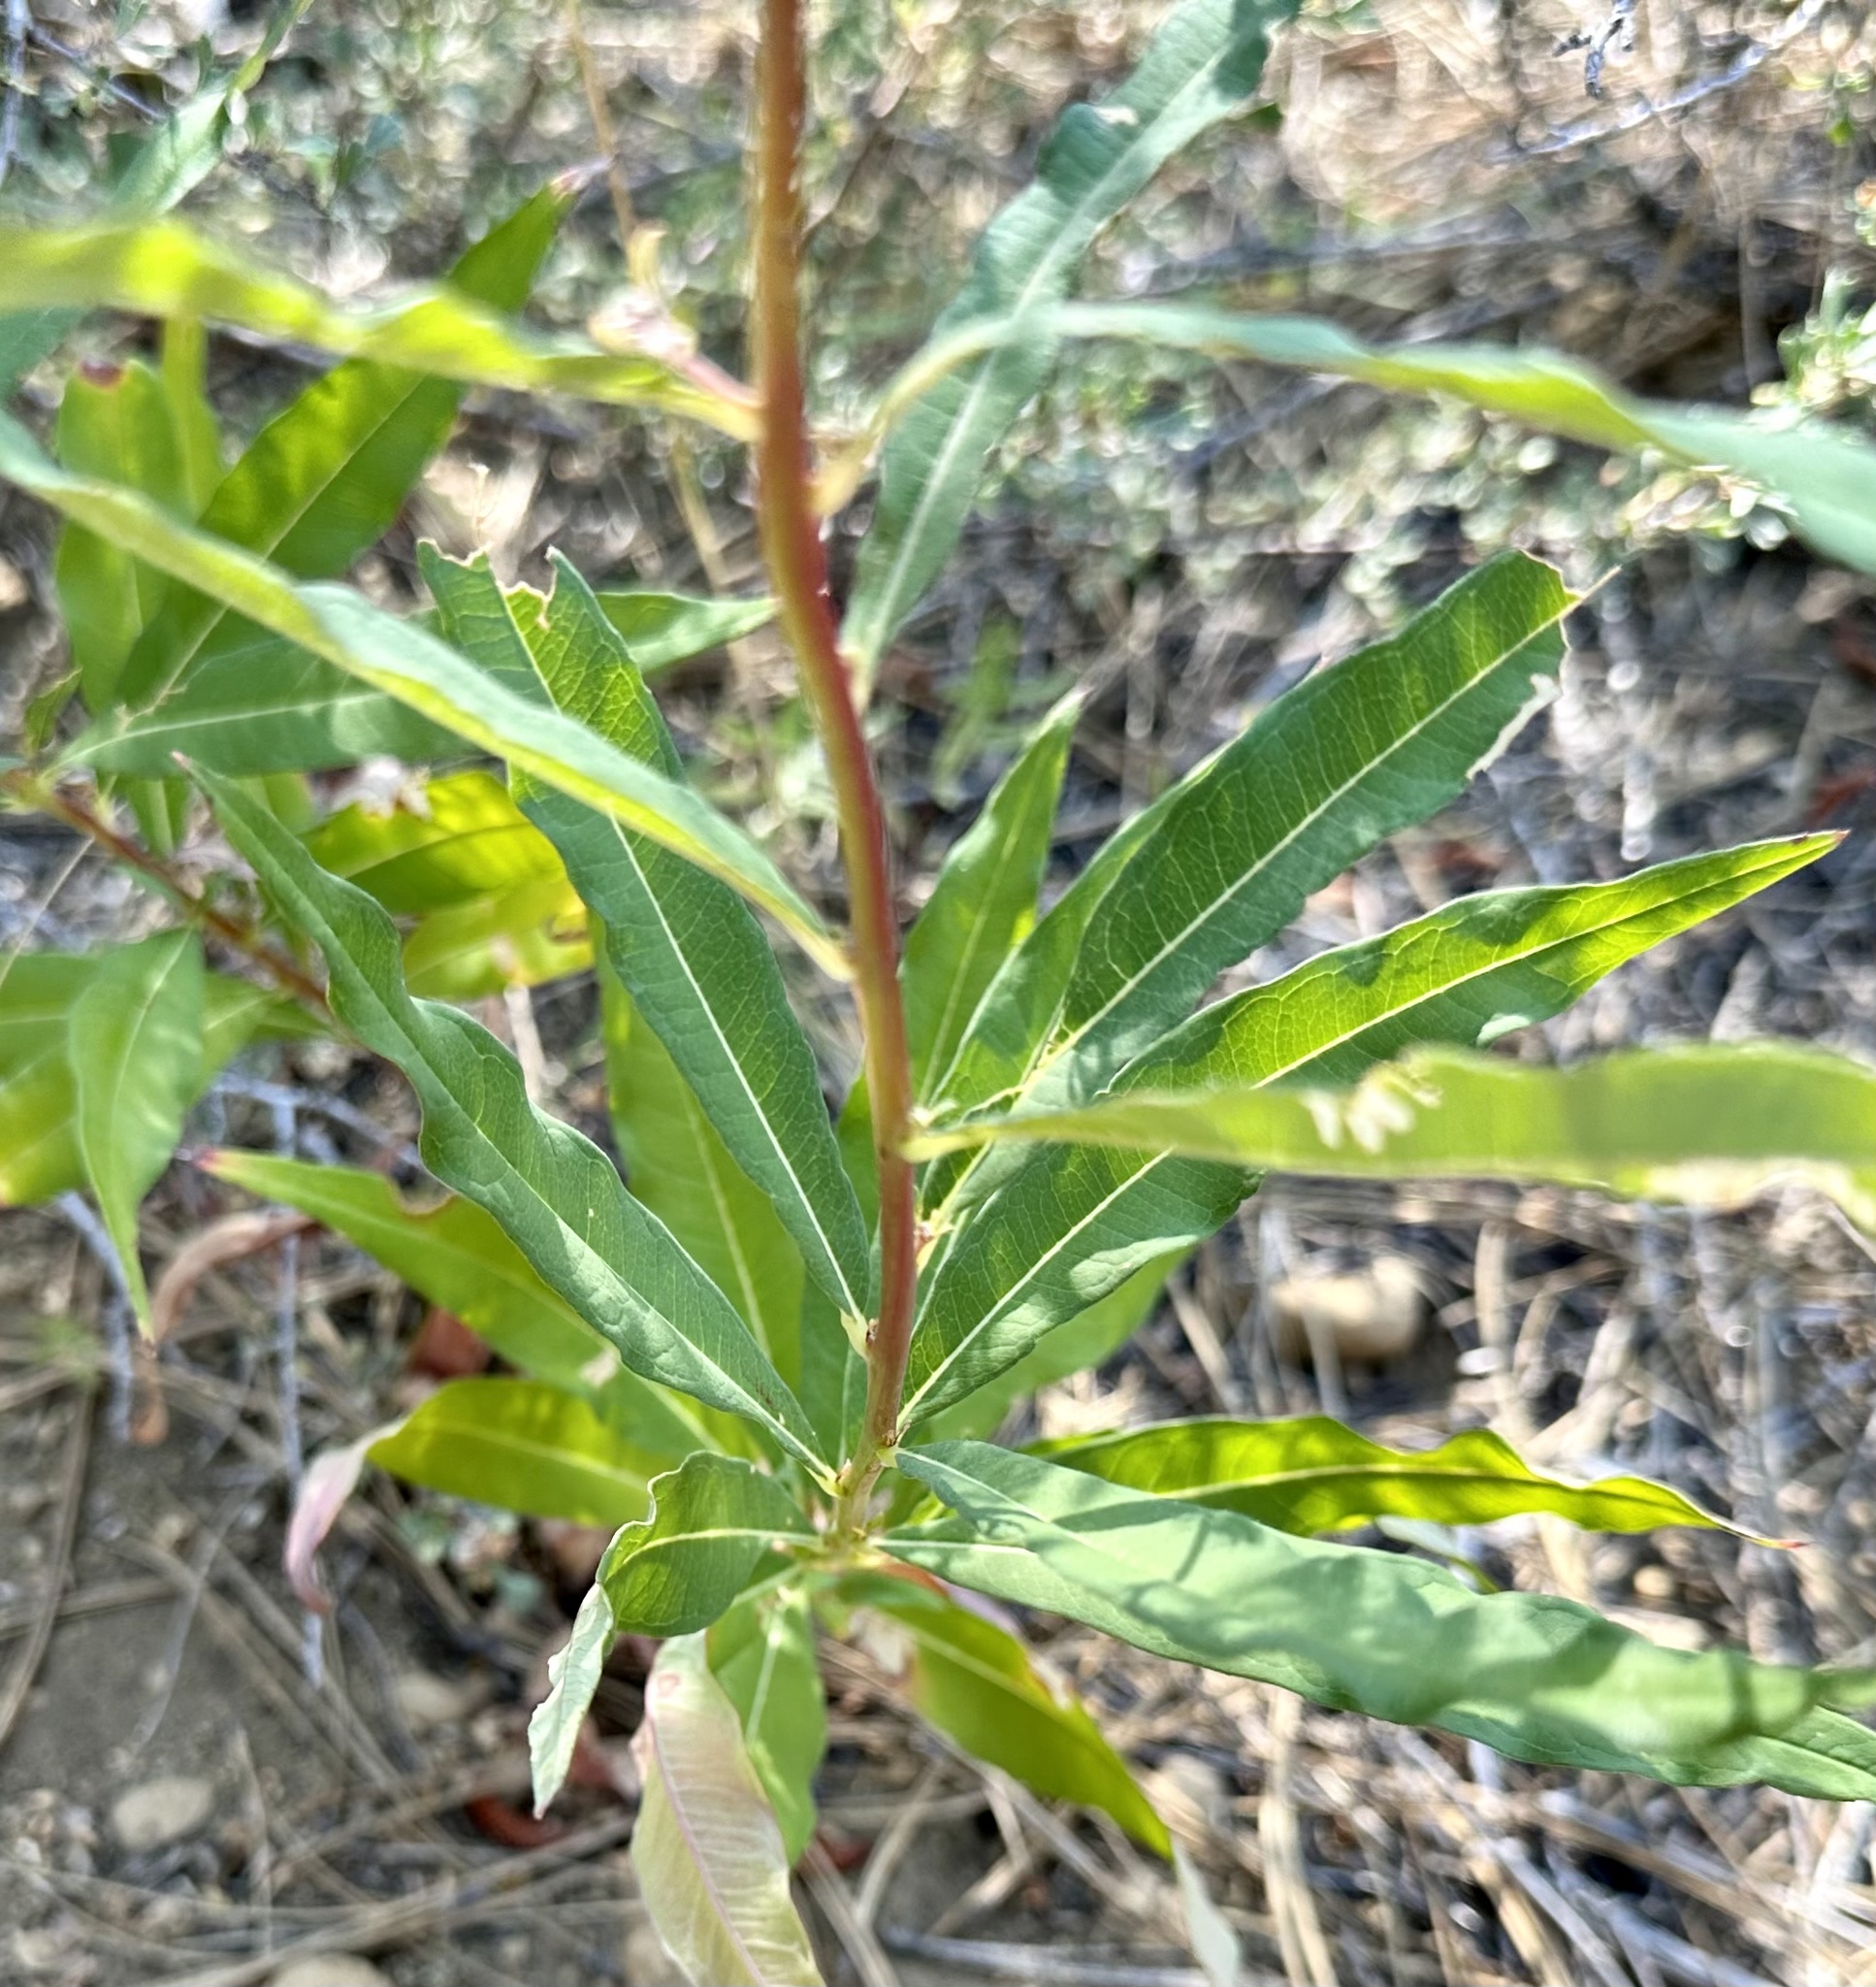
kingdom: Plantae
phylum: Tracheophyta
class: Magnoliopsida
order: Myrtales
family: Onagraceae
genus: Chamaenerion
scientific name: Chamaenerion angustifolium
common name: Fireweed
